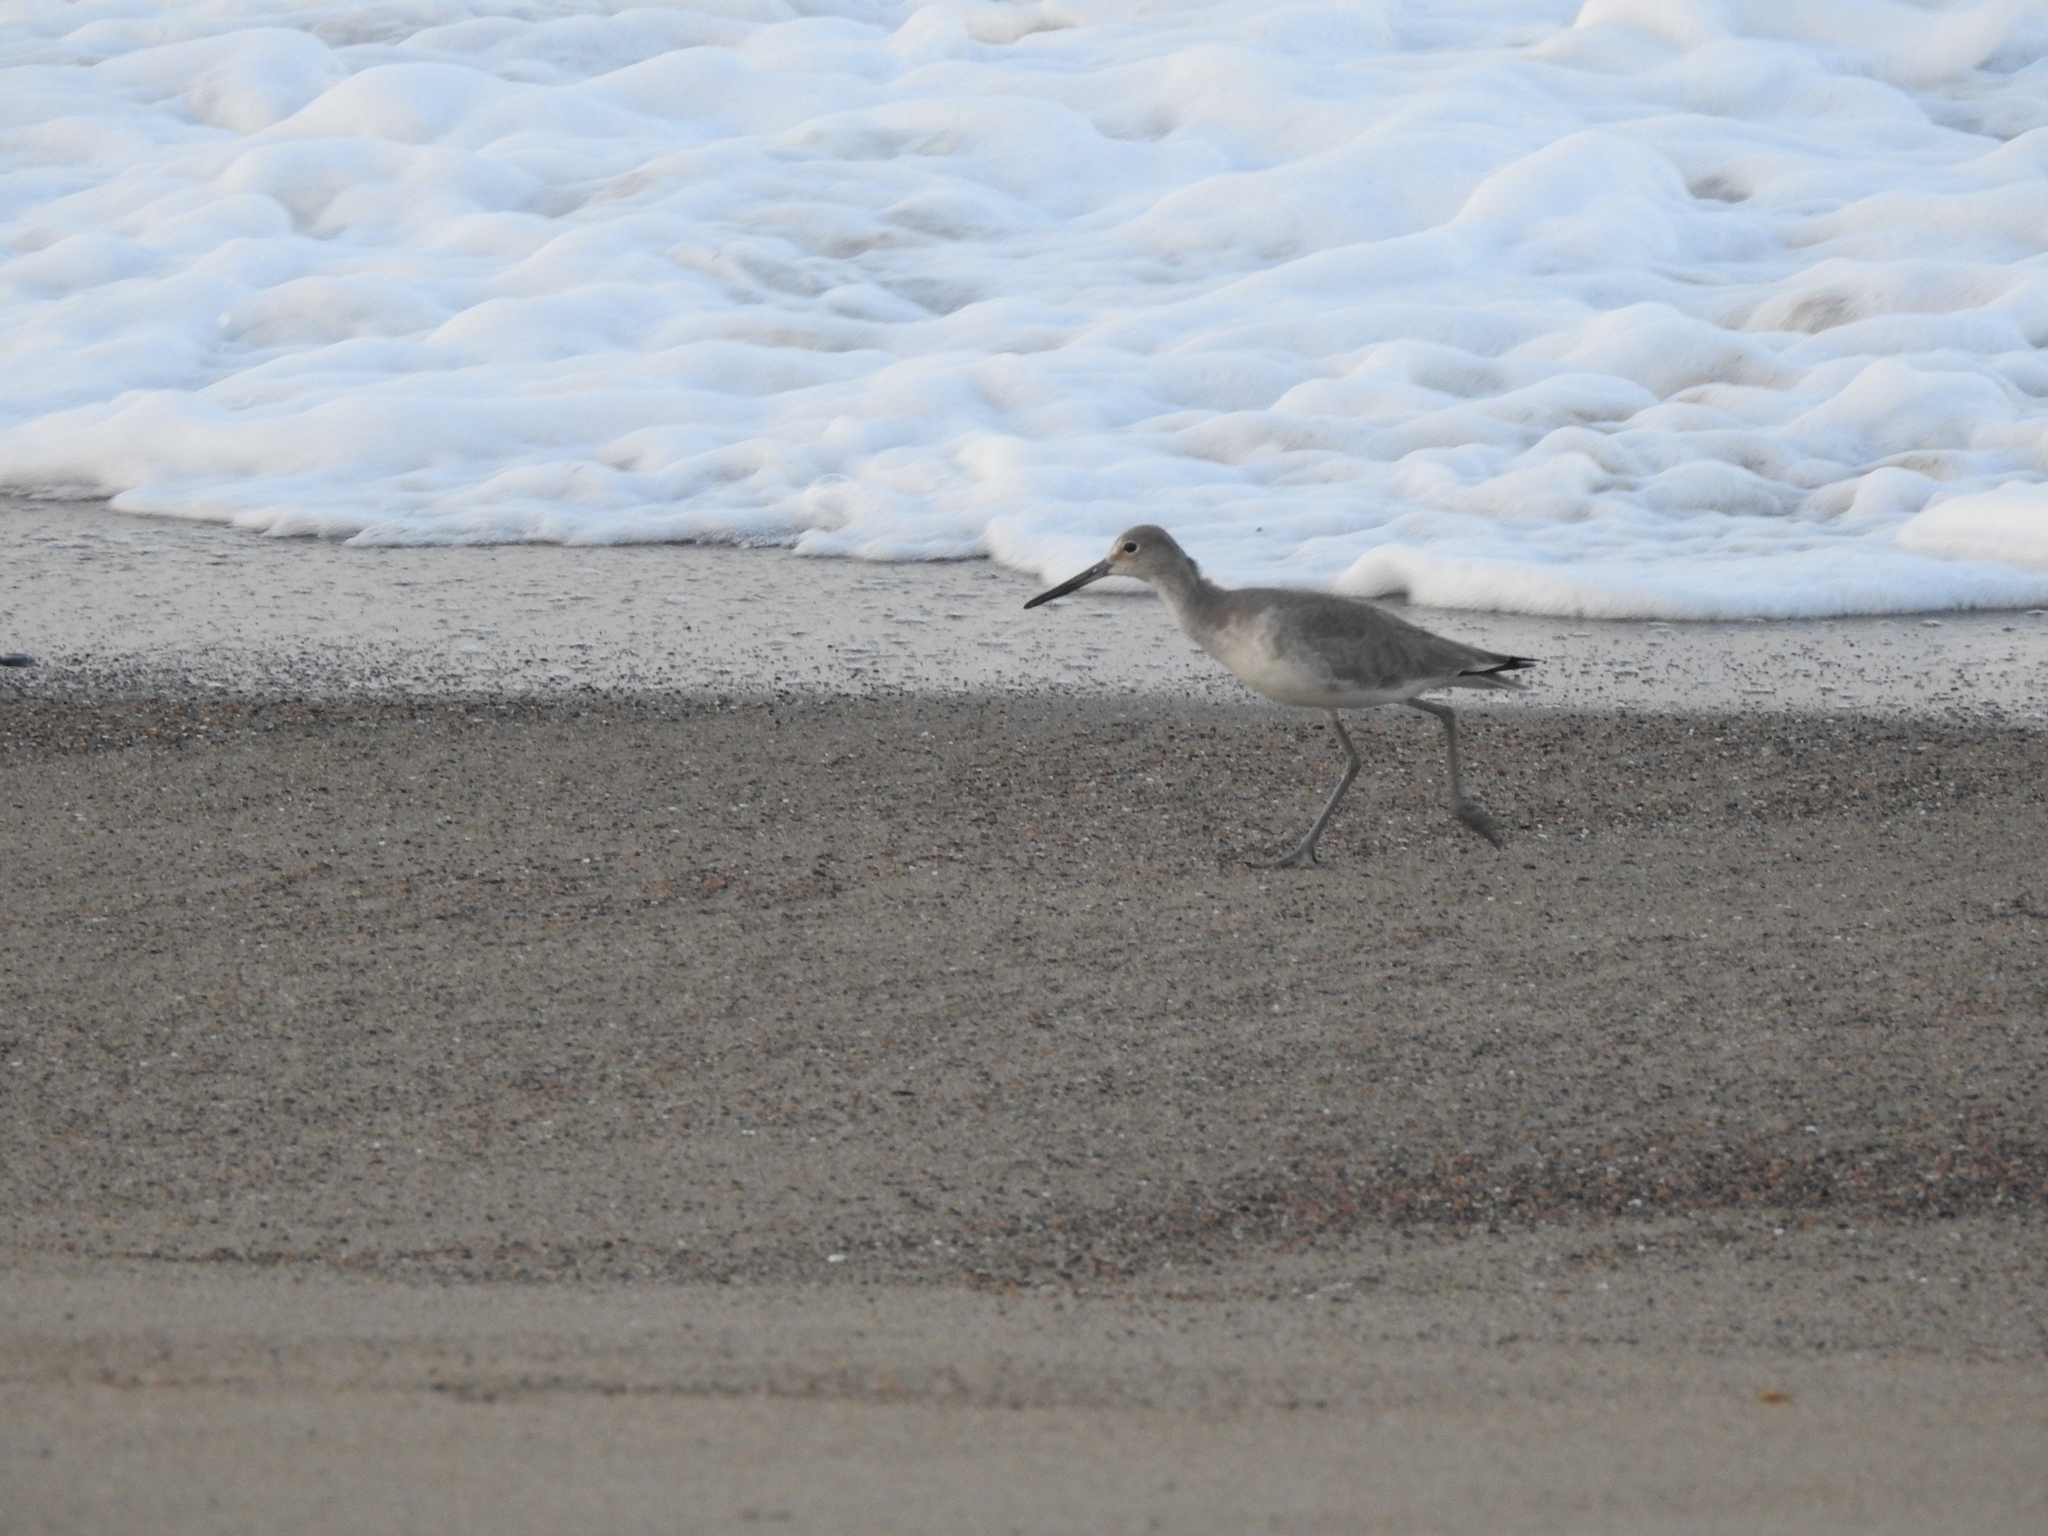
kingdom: Animalia
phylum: Chordata
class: Aves
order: Charadriiformes
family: Scolopacidae
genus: Tringa
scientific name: Tringa semipalmata
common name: Willet
